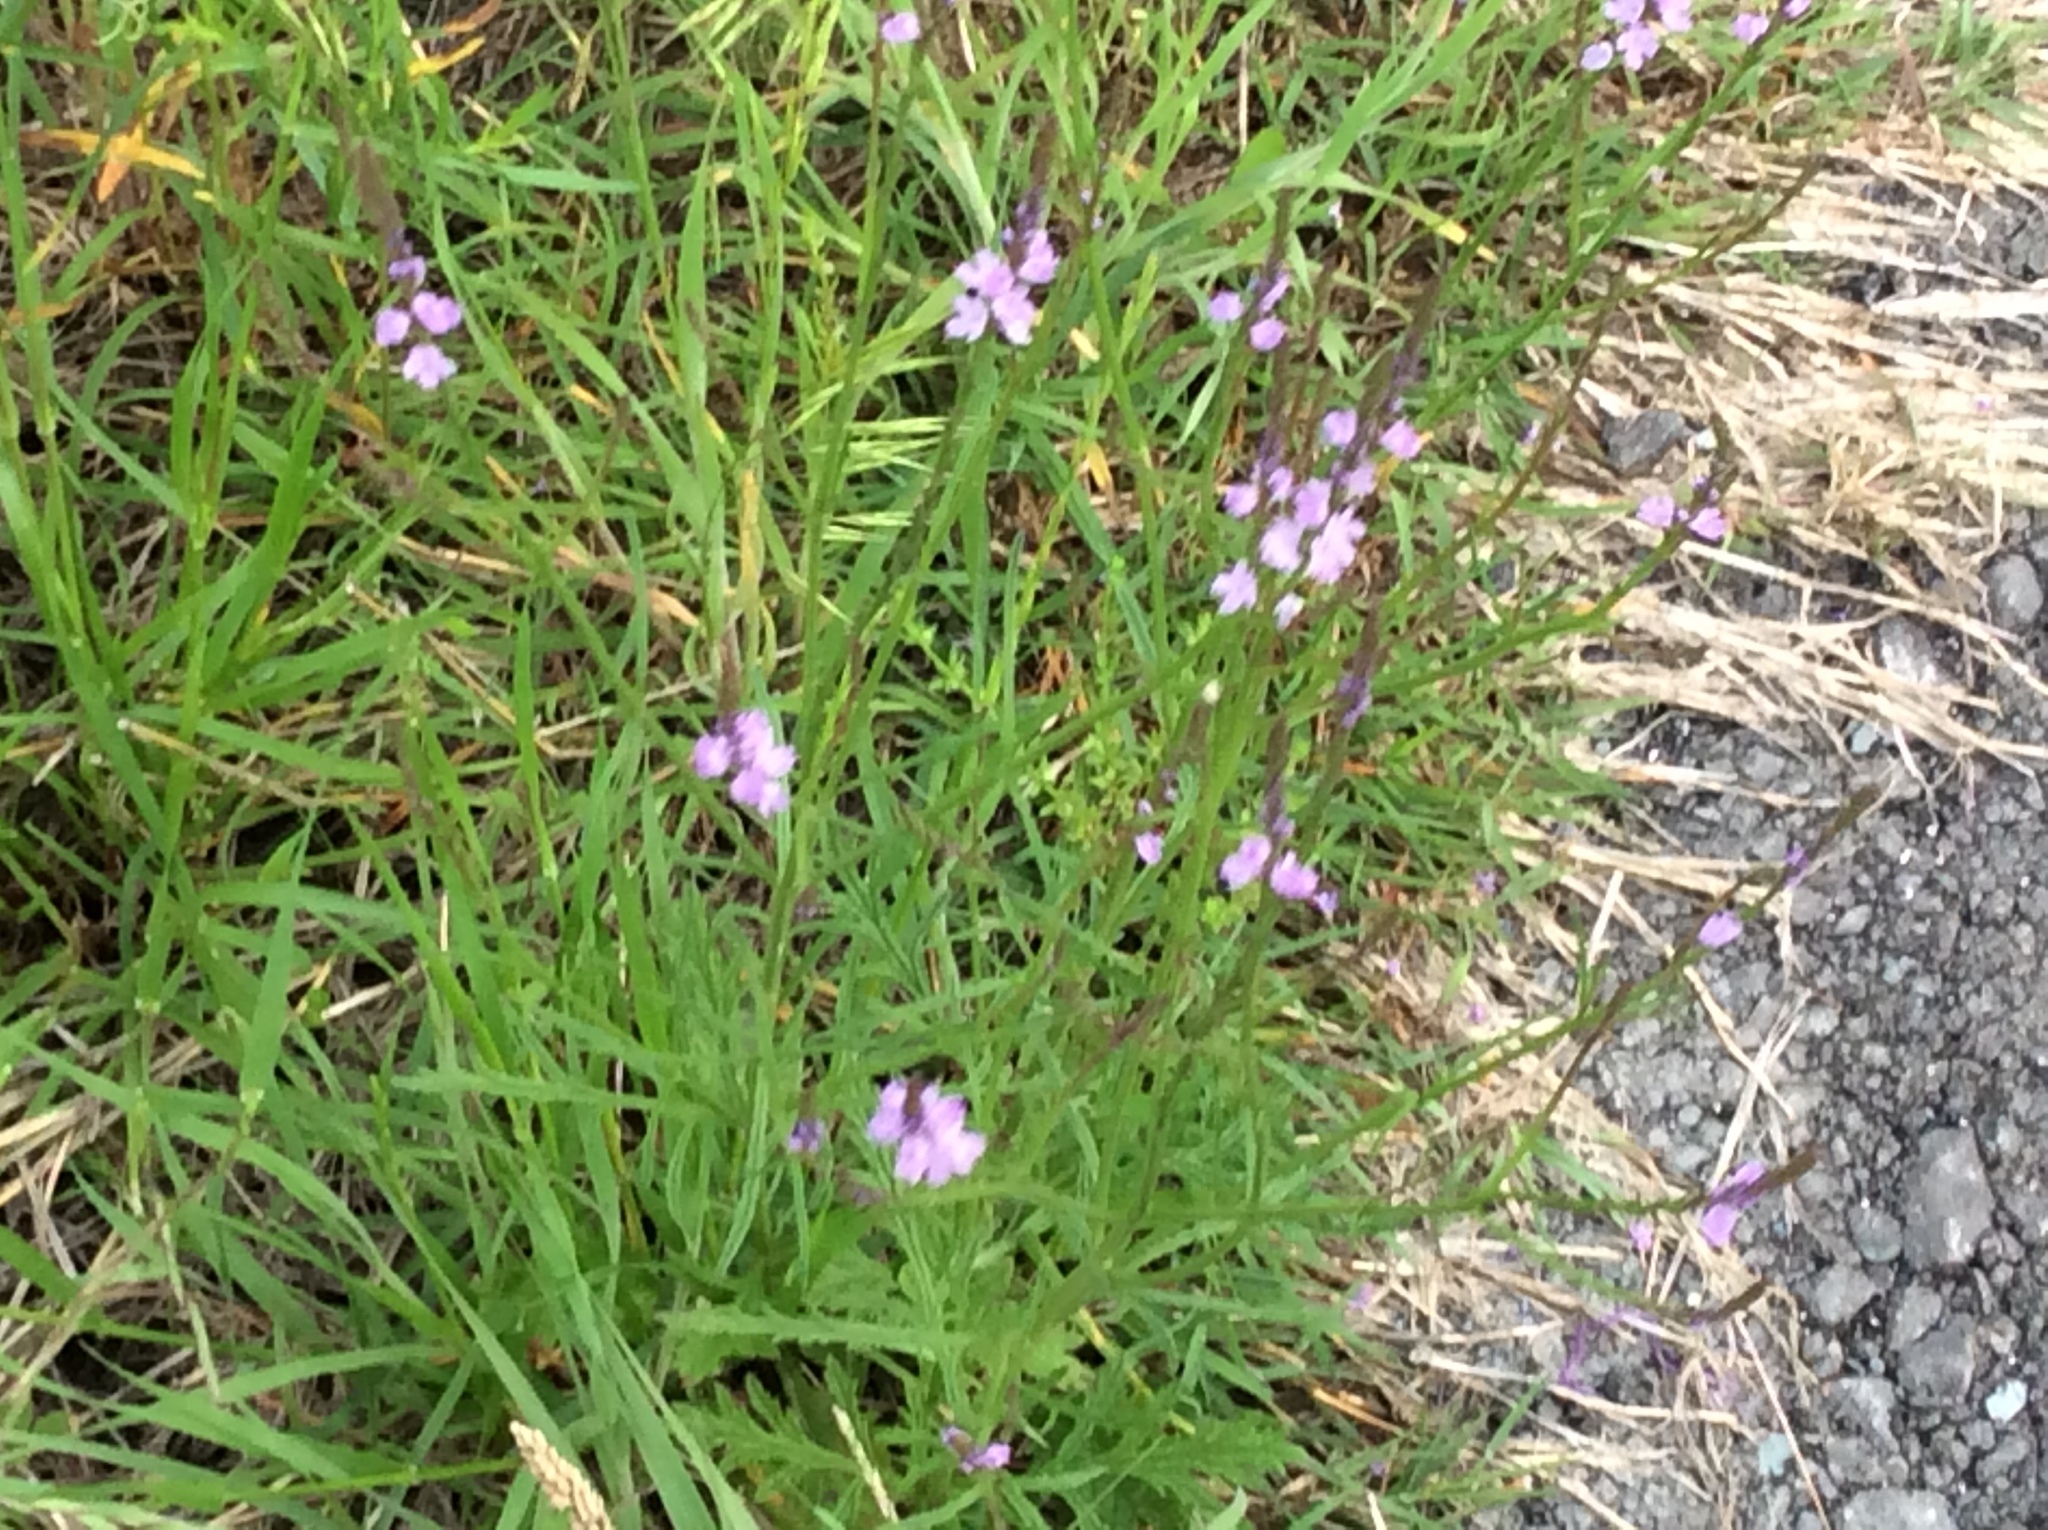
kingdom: Plantae
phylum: Tracheophyta
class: Magnoliopsida
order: Lamiales
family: Verbenaceae
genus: Verbena
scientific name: Verbena halei
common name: Texas vervain
